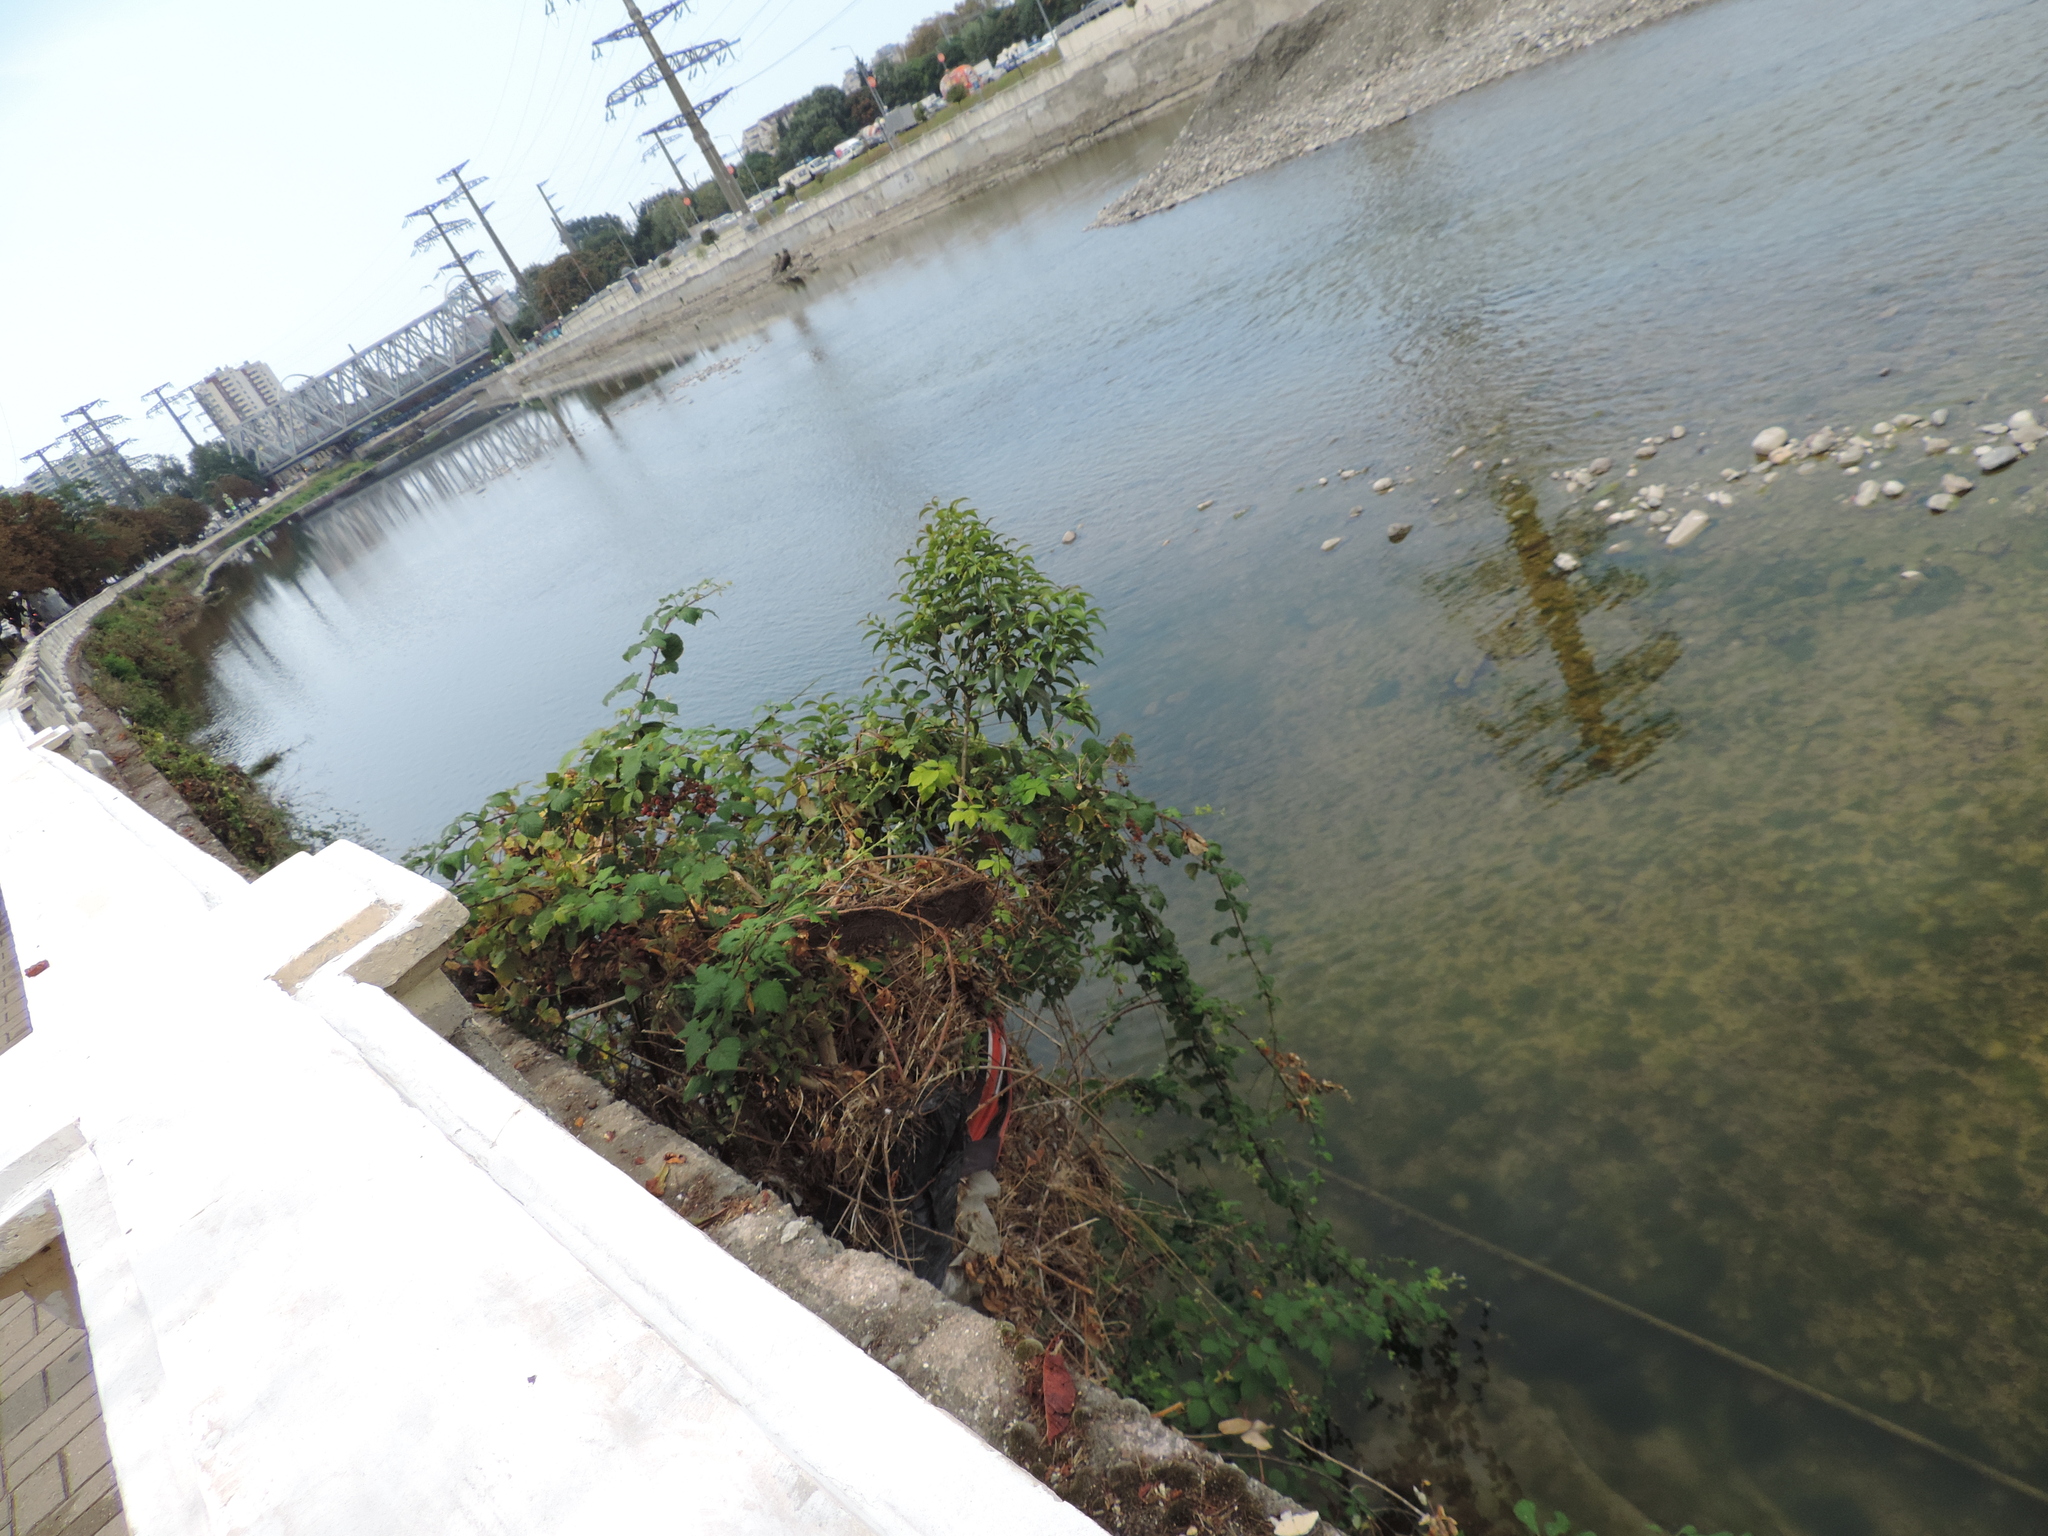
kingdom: Plantae
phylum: Tracheophyta
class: Magnoliopsida
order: Rosales
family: Rosaceae
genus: Rubus
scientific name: Rubus sanctus
